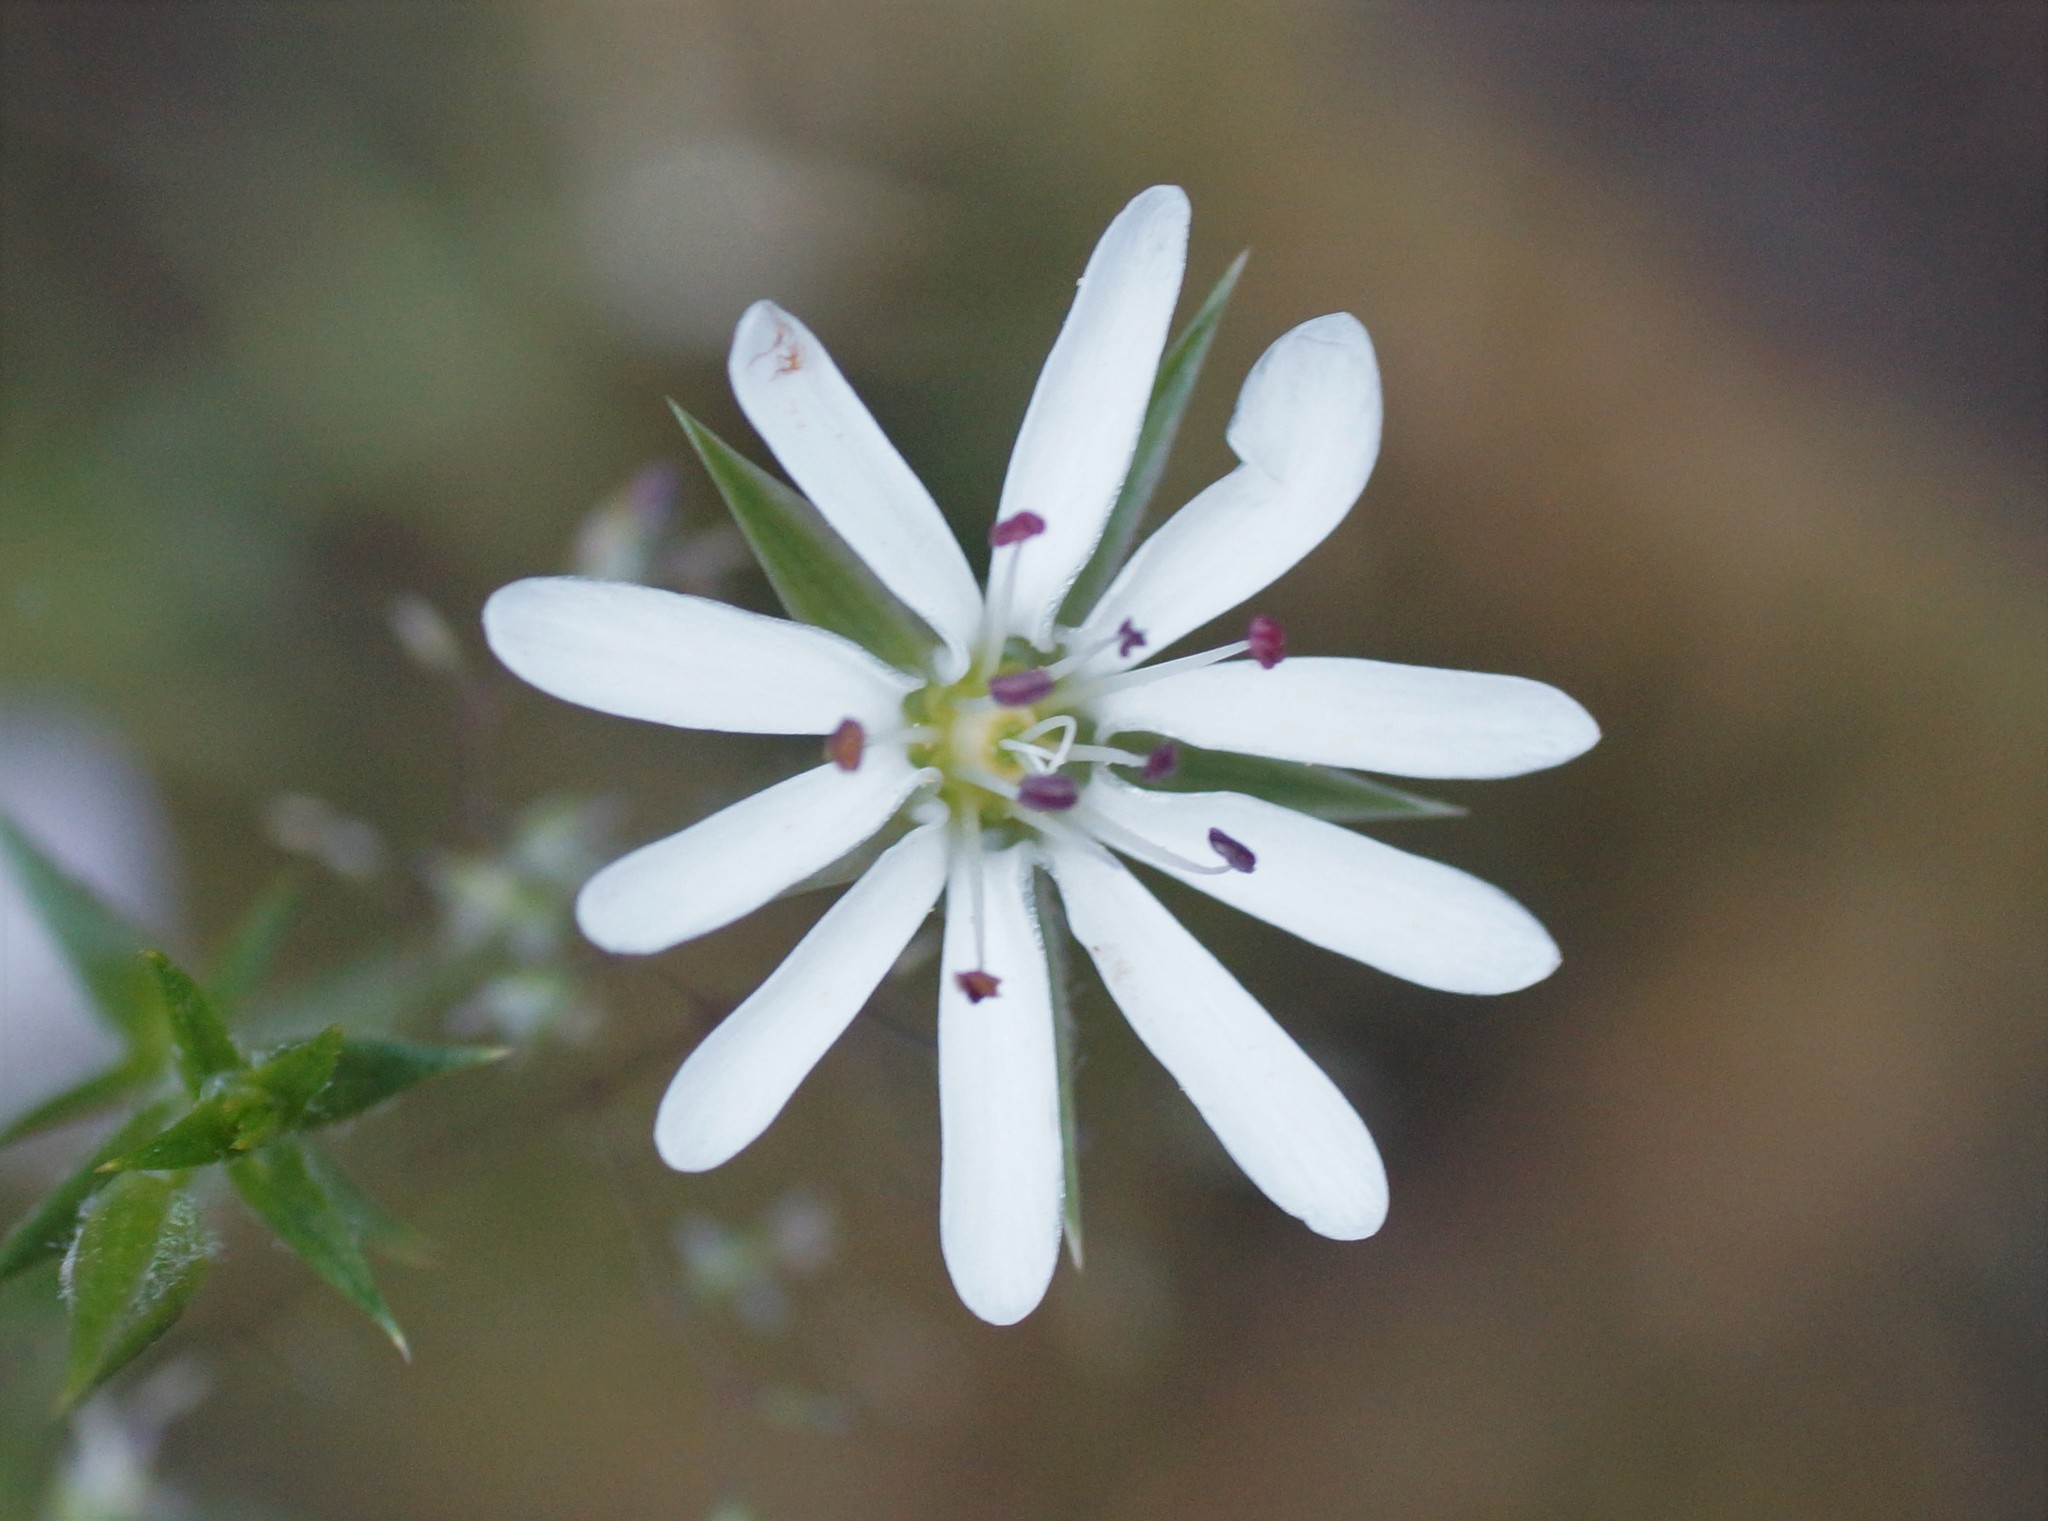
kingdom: Plantae
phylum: Tracheophyta
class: Magnoliopsida
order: Caryophyllales
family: Caryophyllaceae
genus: Stellaria
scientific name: Stellaria pungens
